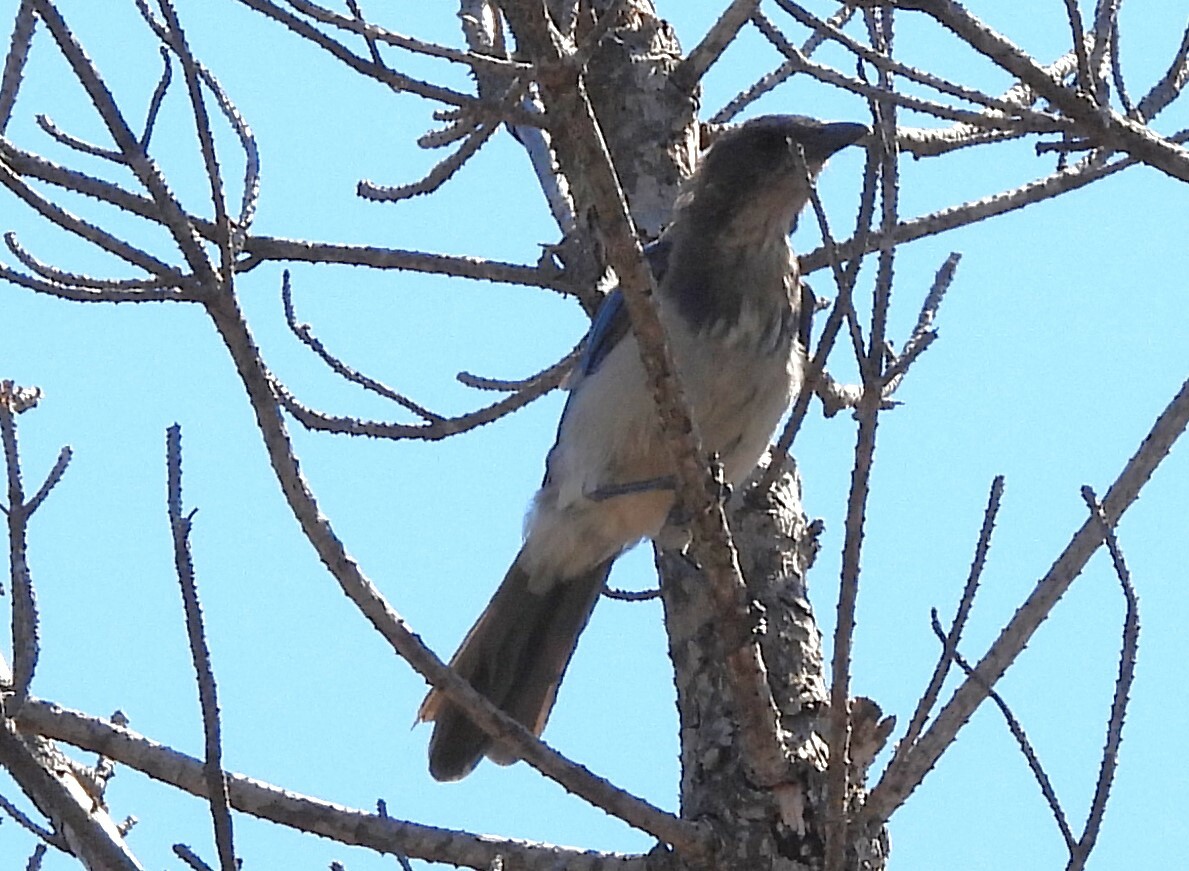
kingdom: Animalia
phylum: Chordata
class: Aves
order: Passeriformes
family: Corvidae
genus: Aphelocoma
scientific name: Aphelocoma californica
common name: California scrub-jay
